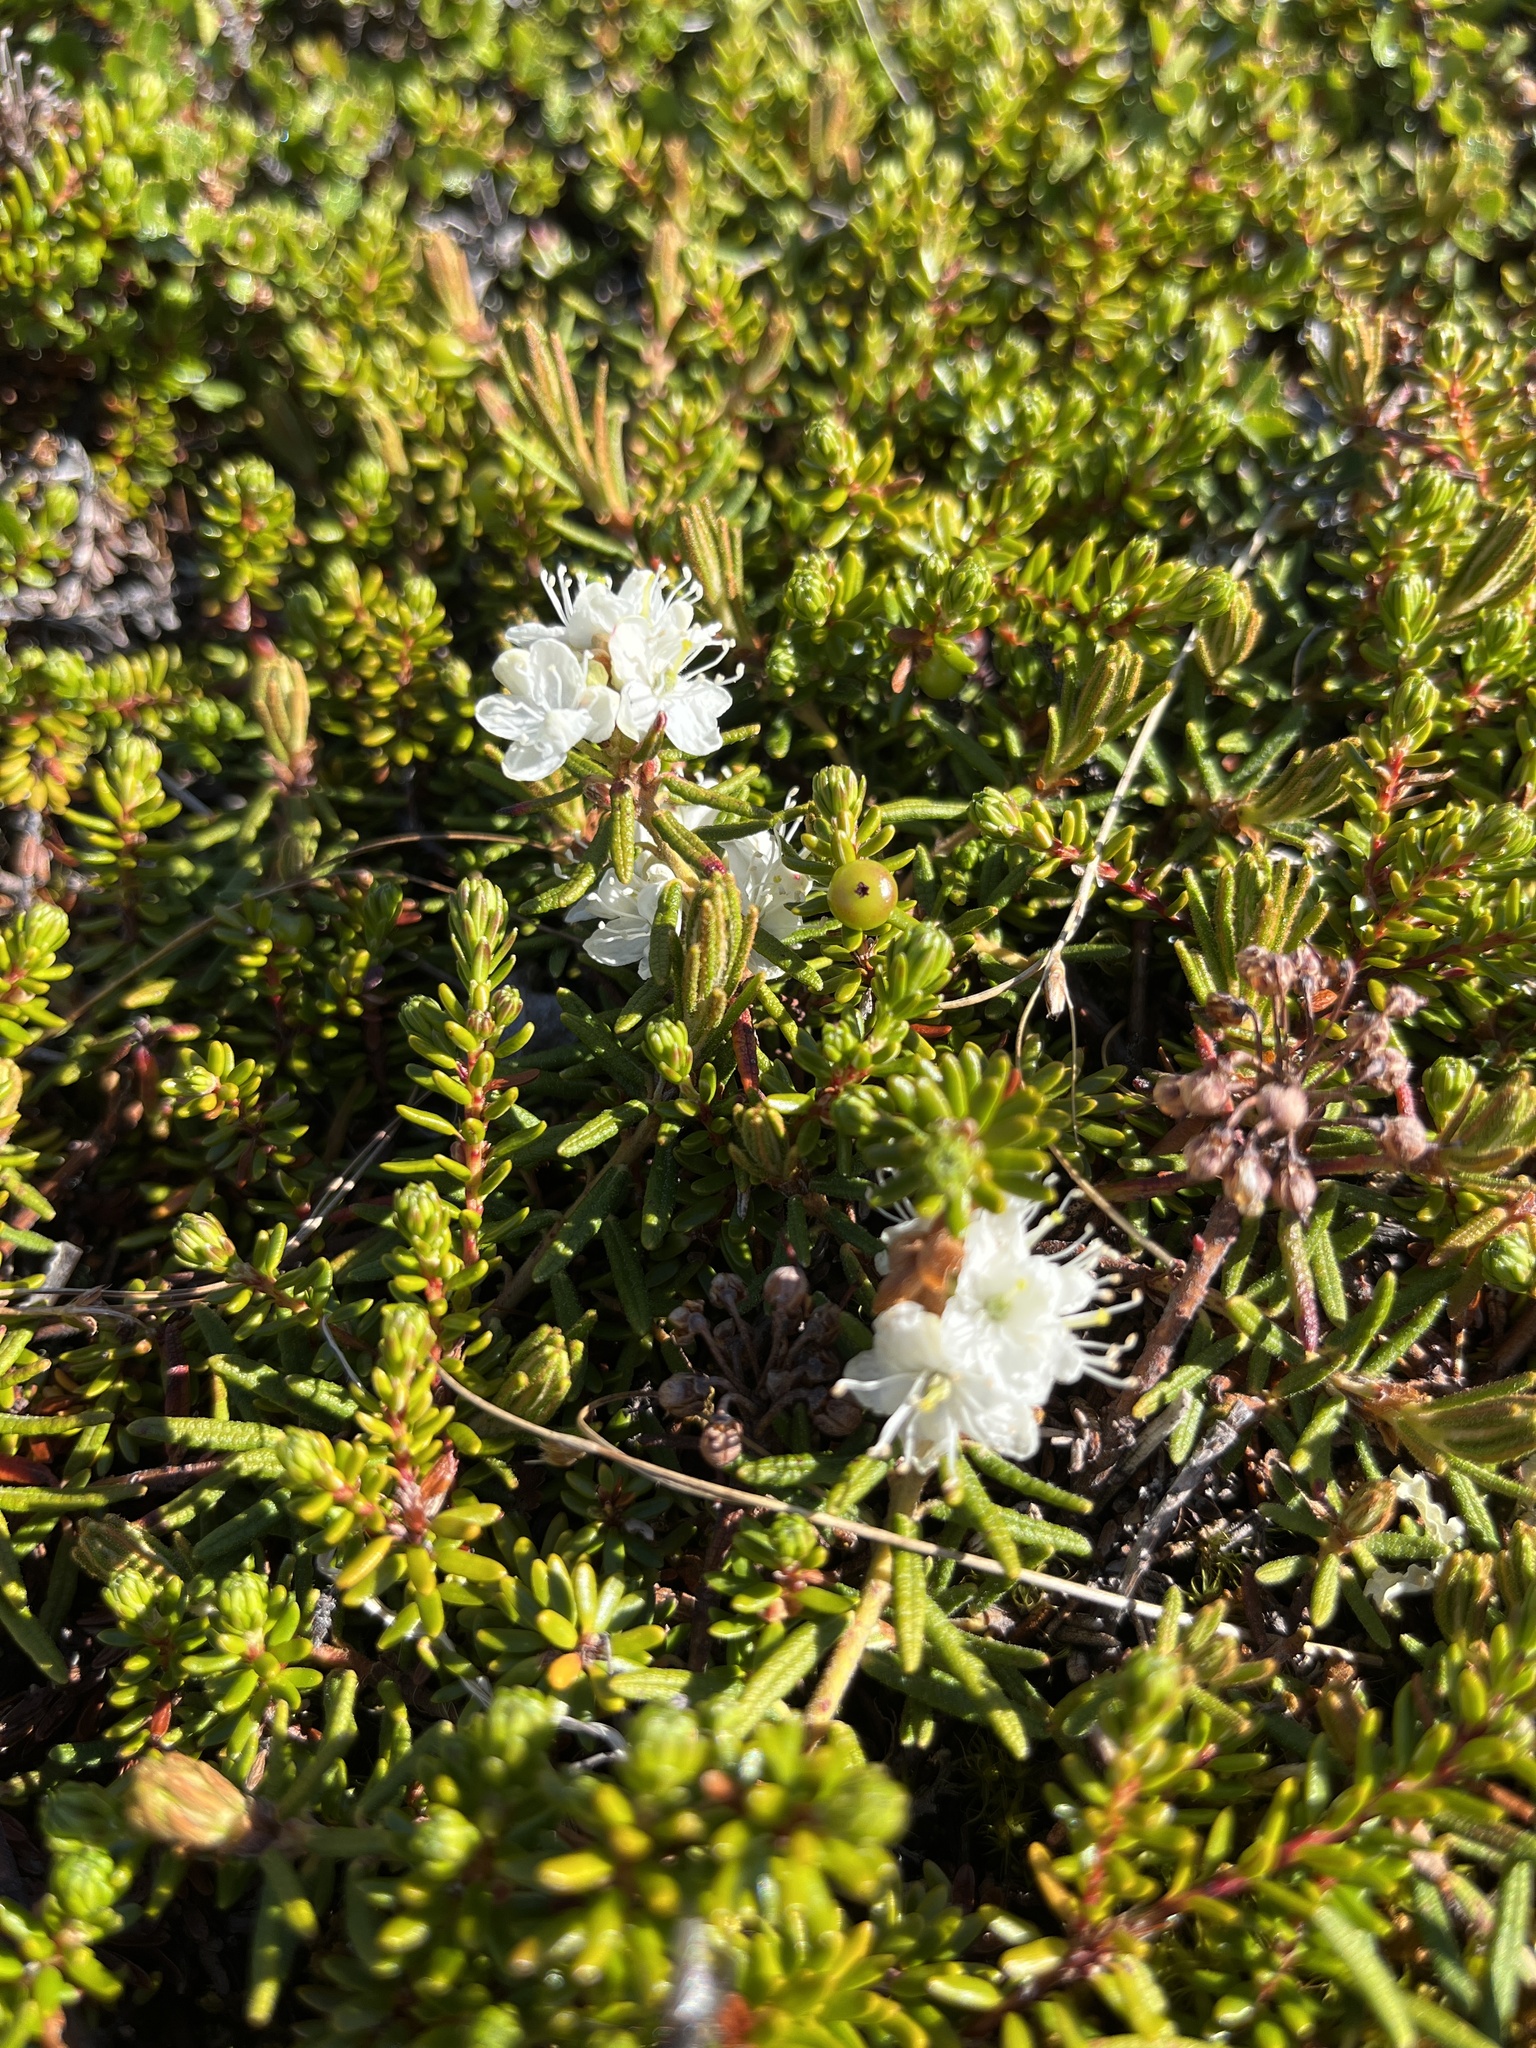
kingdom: Plantae
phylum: Tracheophyta
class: Magnoliopsida
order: Ericales
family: Ericaceae
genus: Rhododendron
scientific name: Rhododendron tomentosum
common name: Marsh labrador tea
